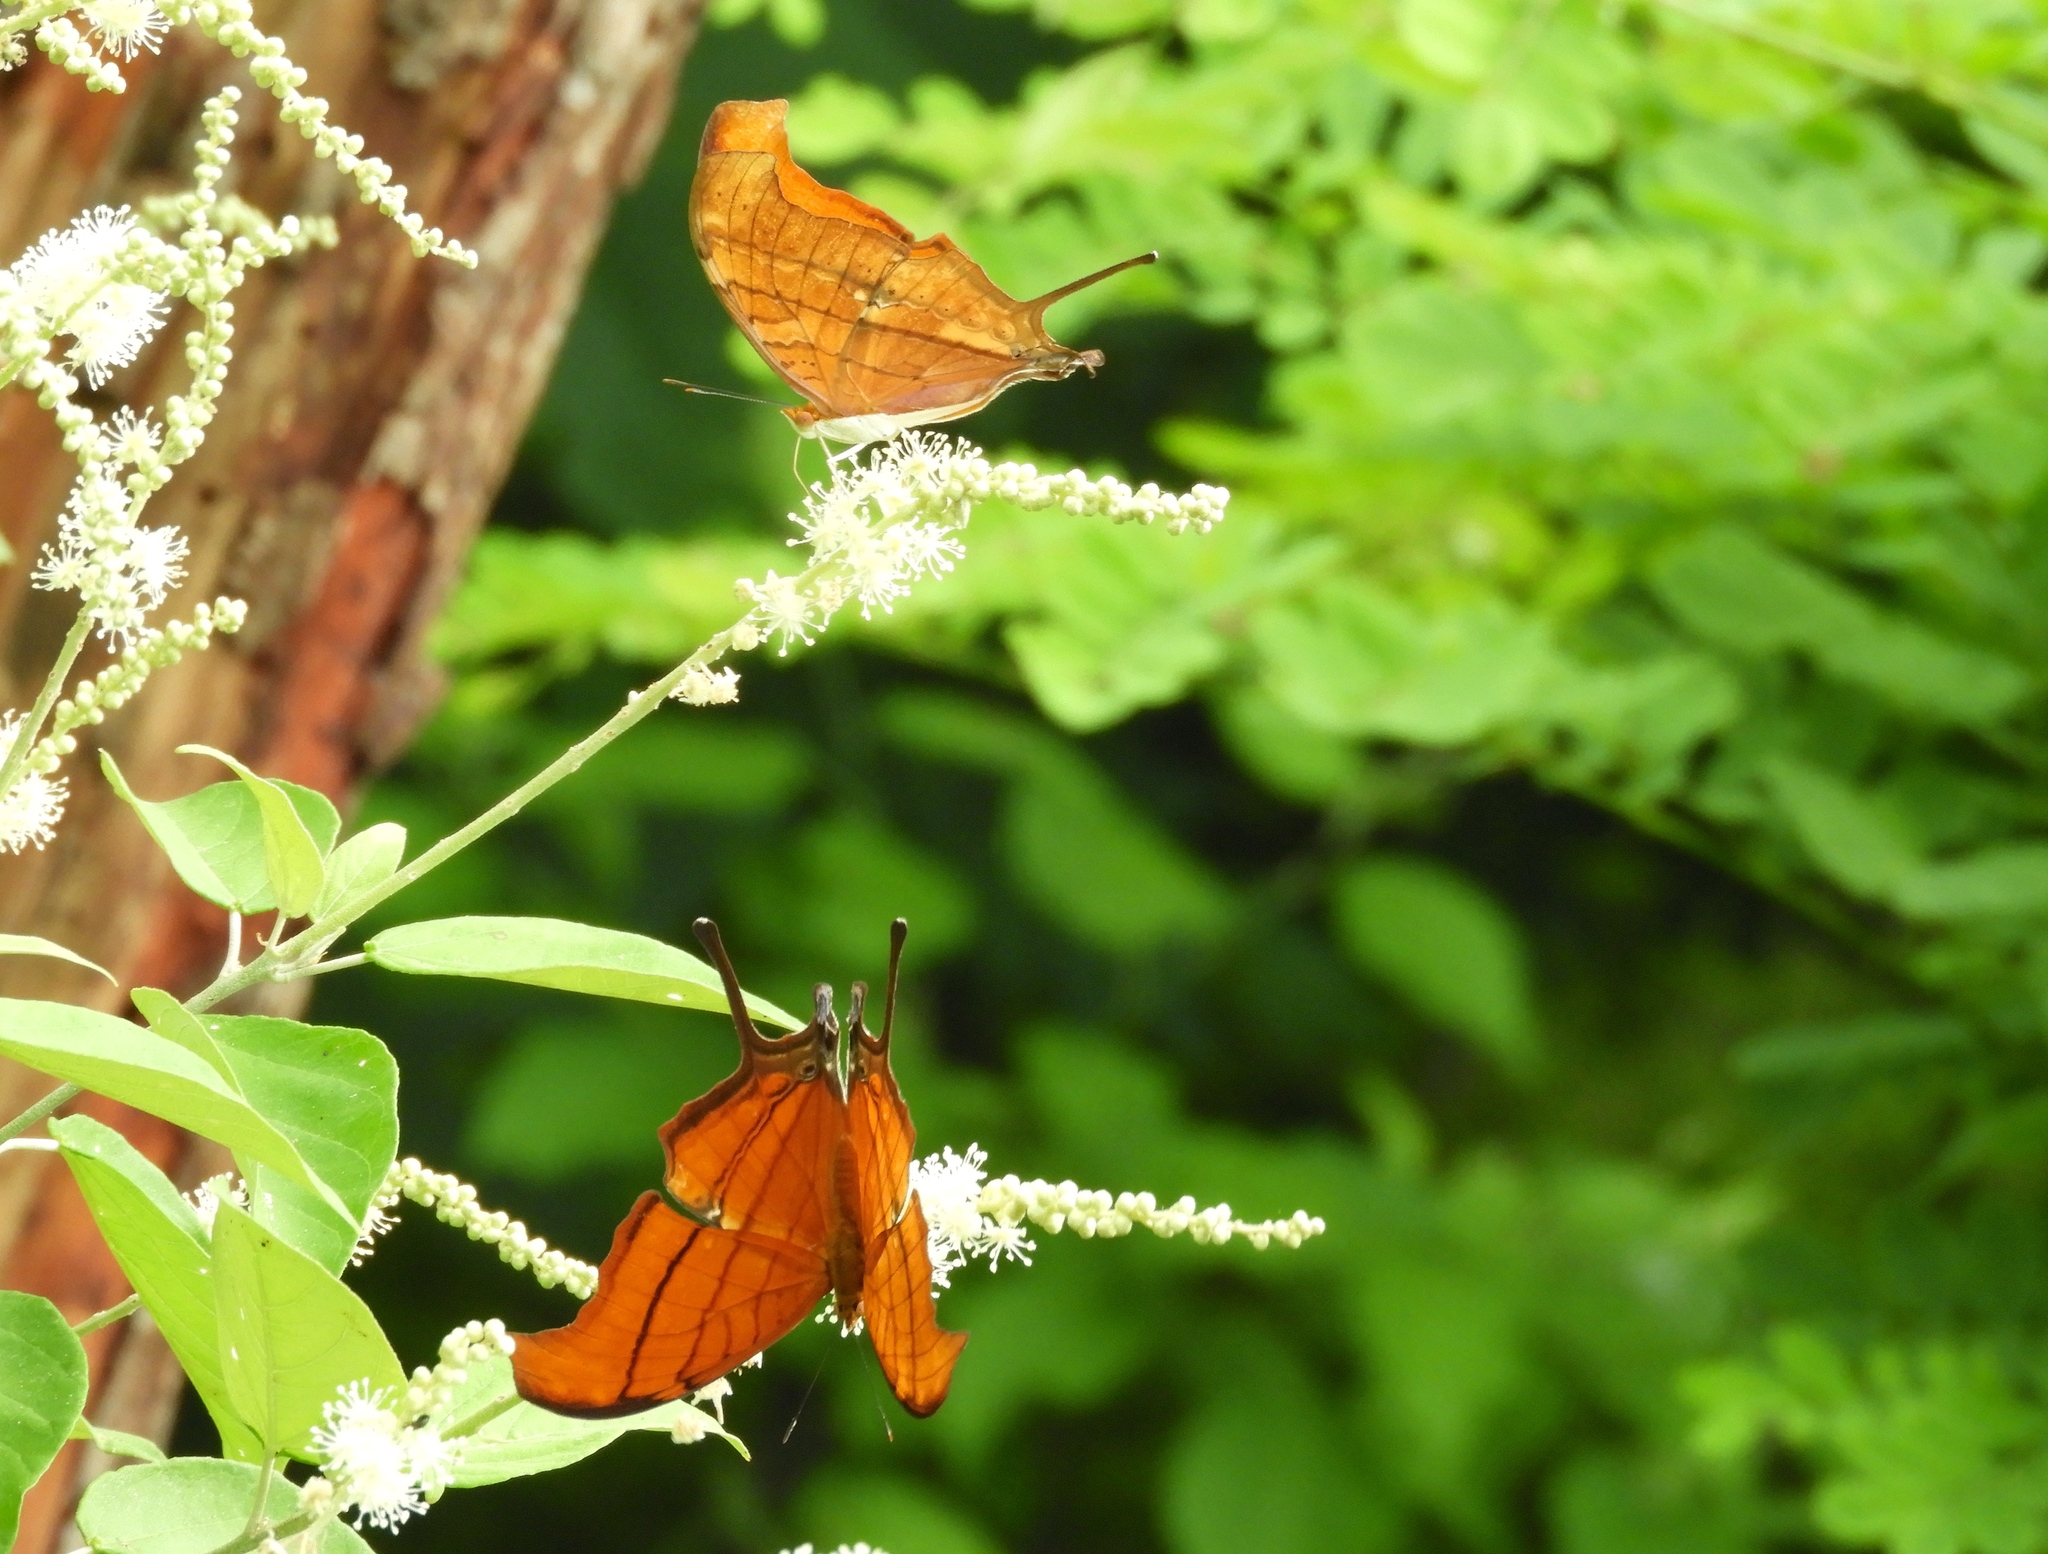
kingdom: Animalia
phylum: Arthropoda
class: Insecta
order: Lepidoptera
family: Nymphalidae
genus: Marpesia
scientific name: Marpesia petreus
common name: Red dagger wing
